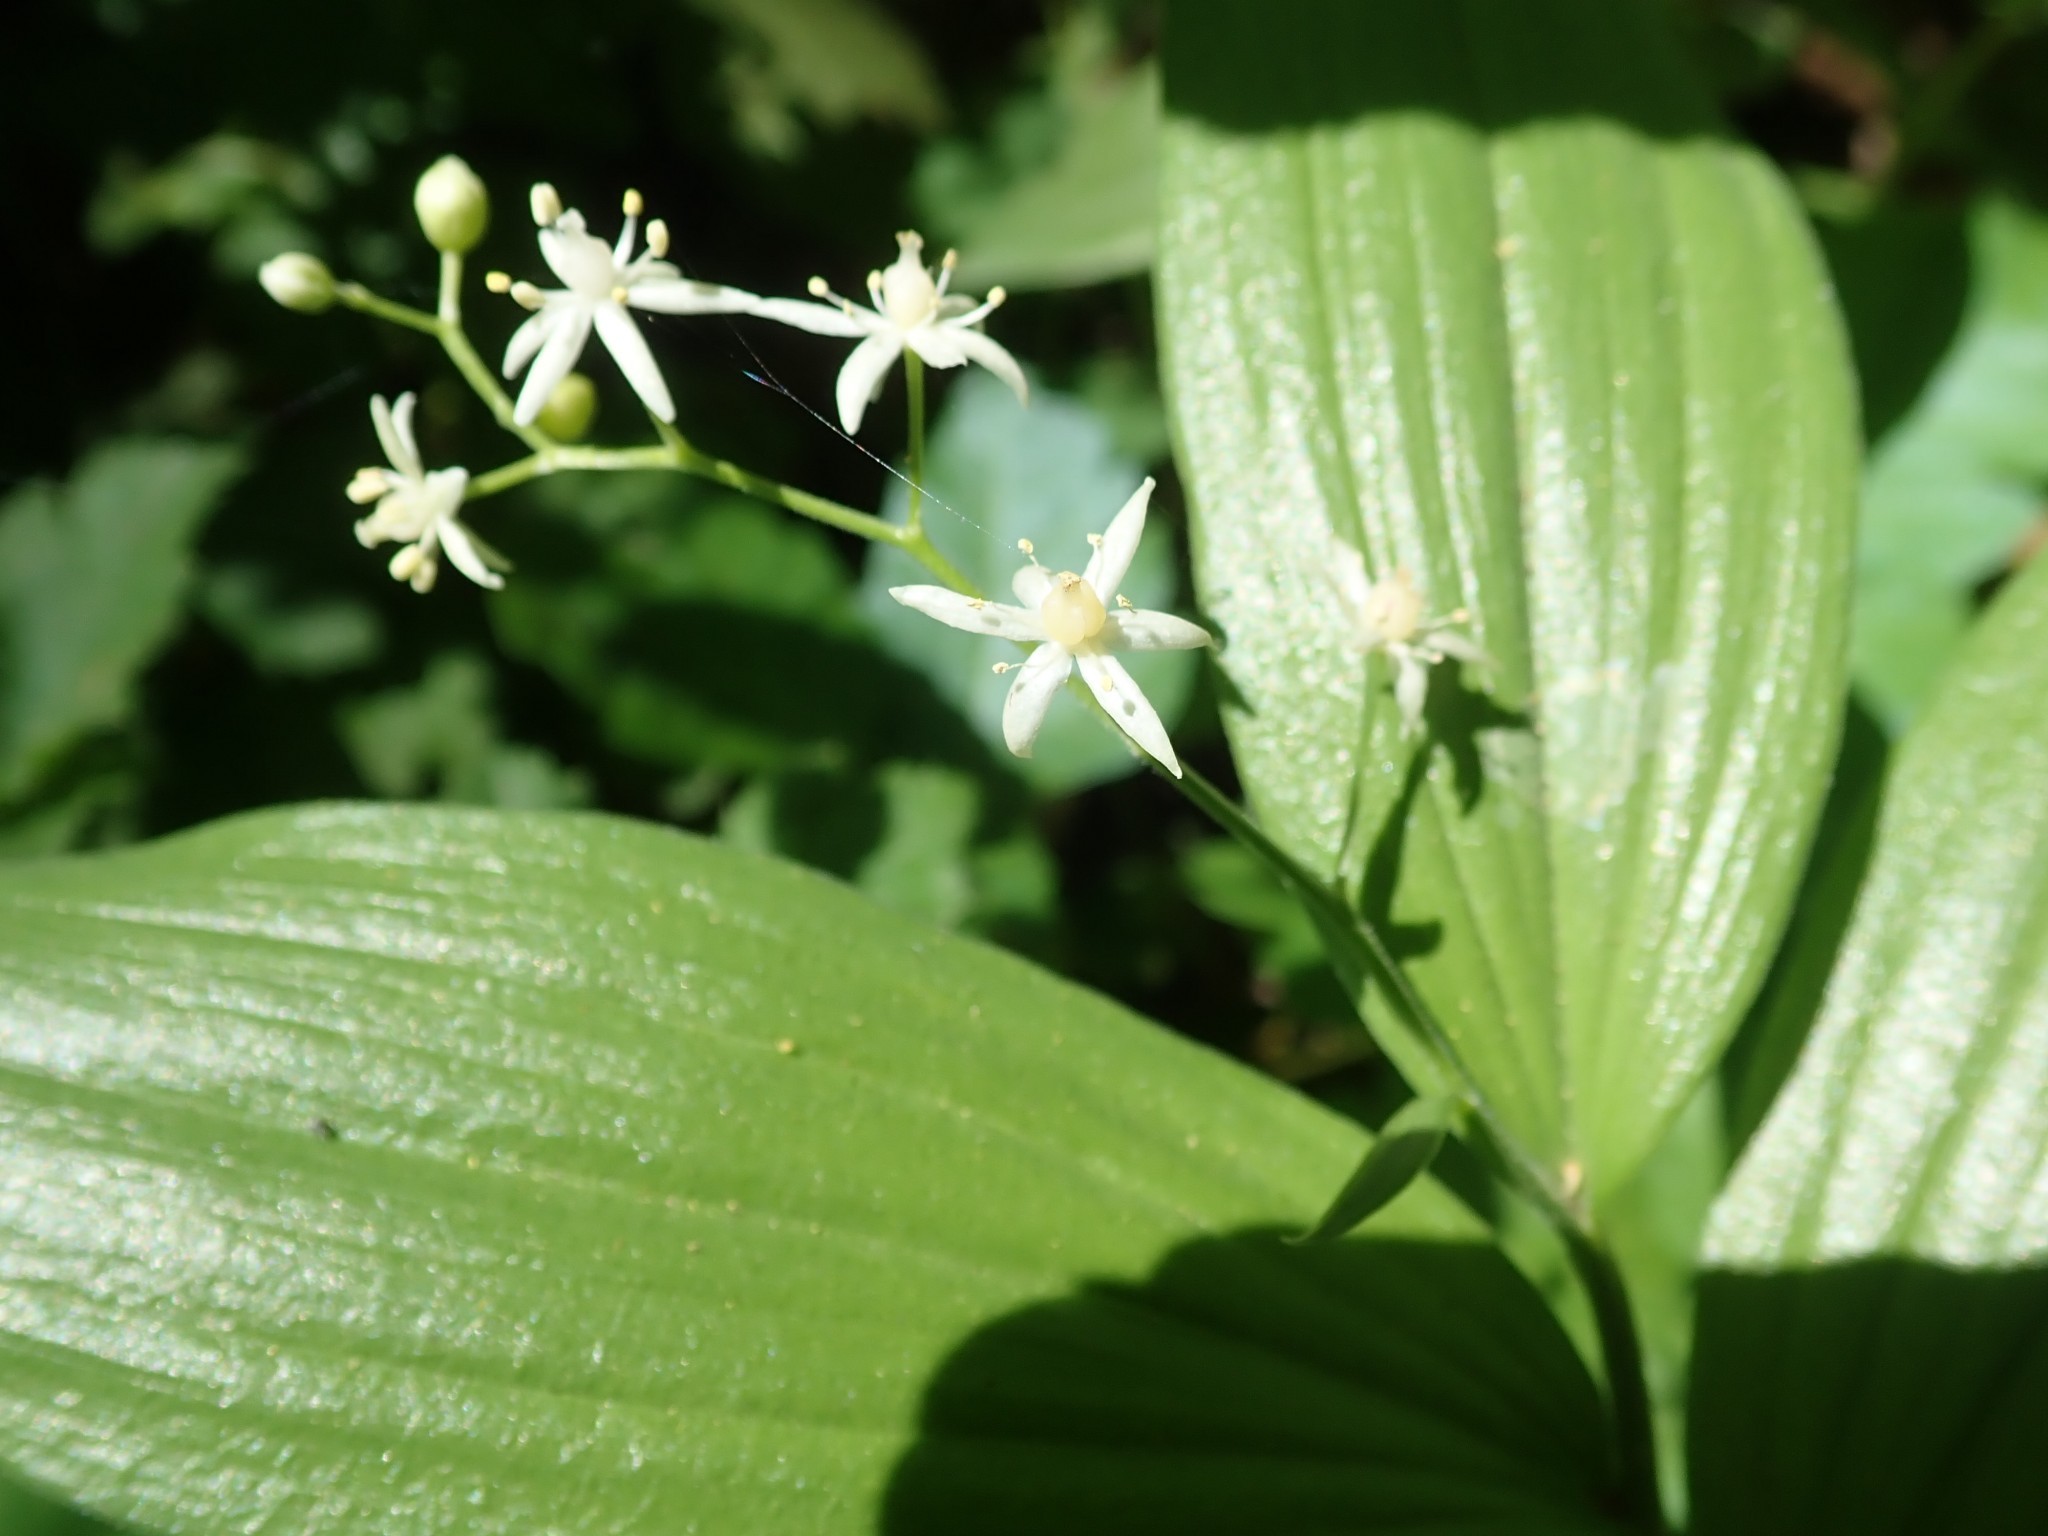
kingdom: Plantae
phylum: Tracheophyta
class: Liliopsida
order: Asparagales
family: Asparagaceae
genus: Maianthemum
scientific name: Maianthemum stellatum
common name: Little false solomon's seal
